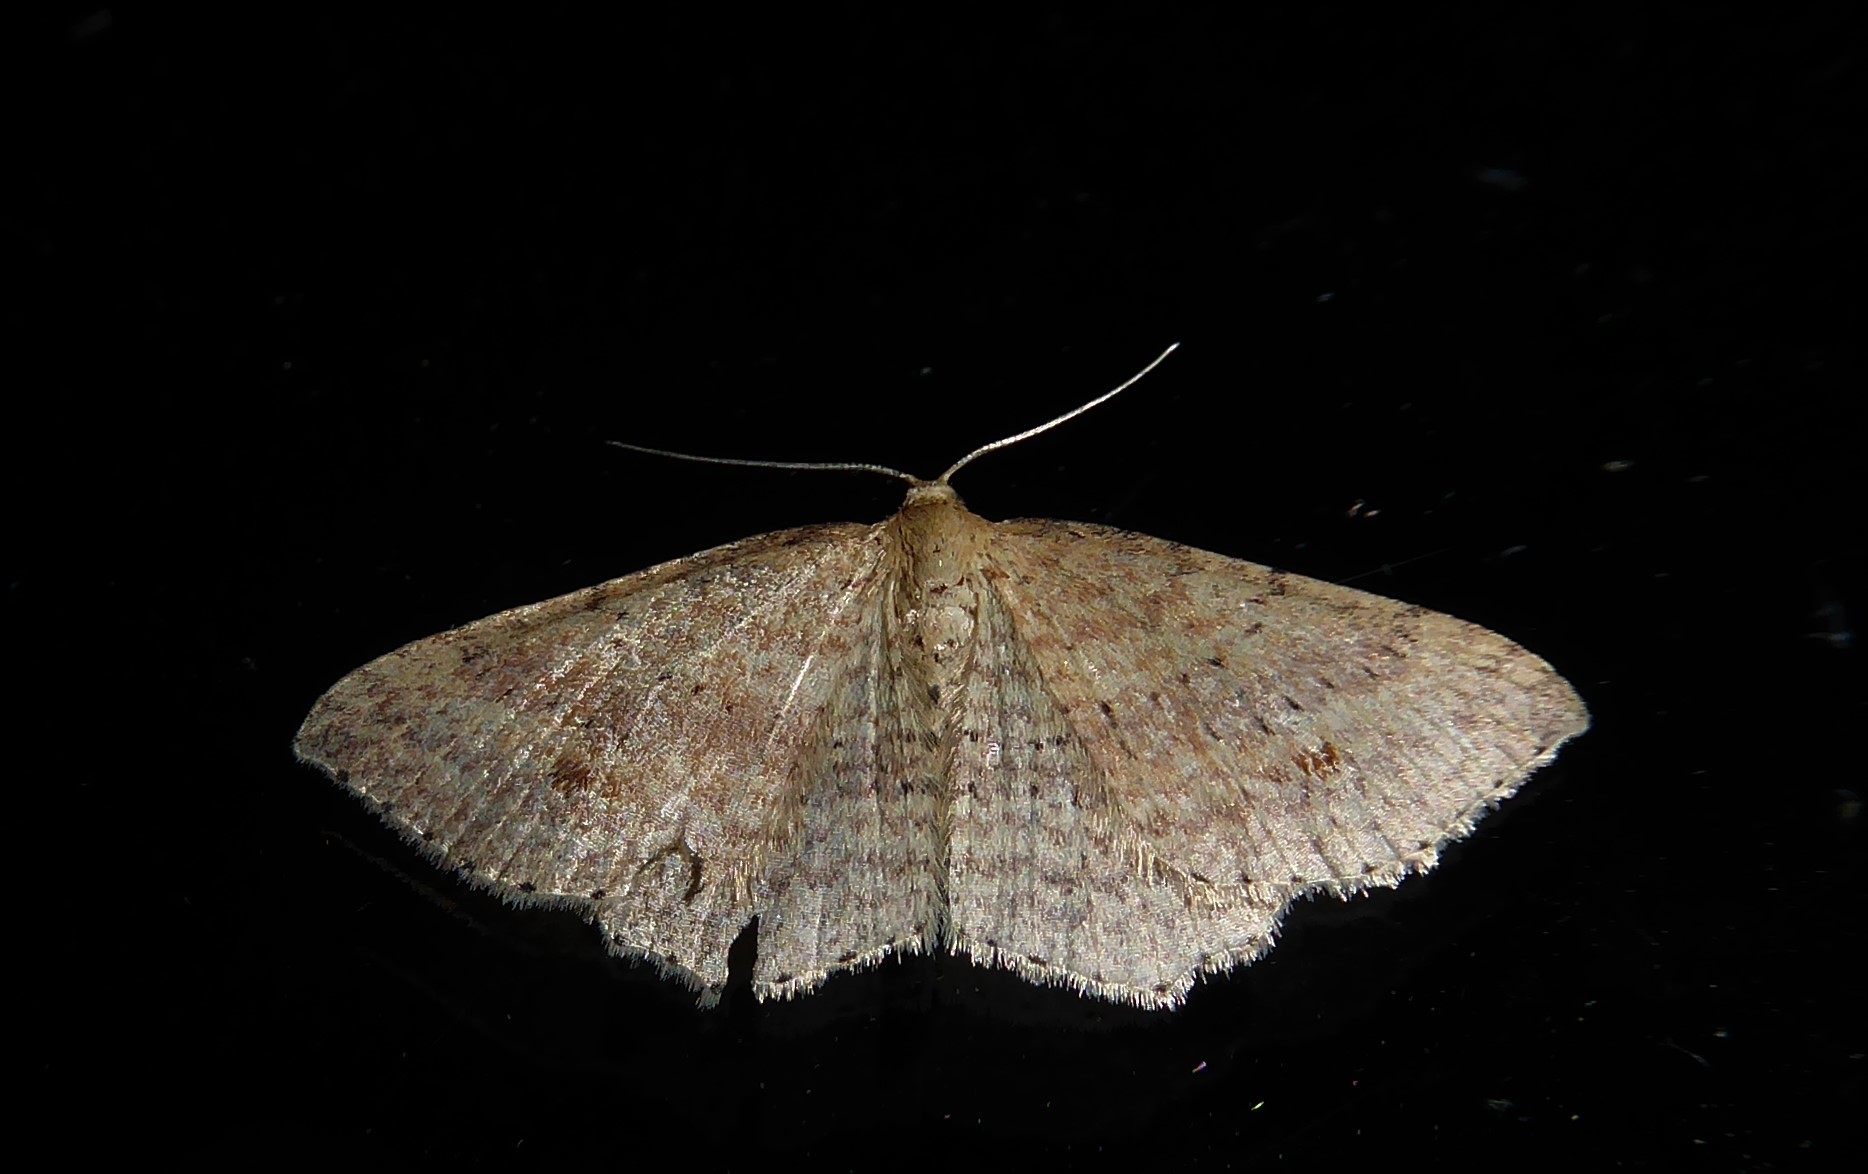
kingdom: Animalia
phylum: Arthropoda
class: Insecta
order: Lepidoptera
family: Geometridae
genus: Epicyme
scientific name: Epicyme rubropunctaria
